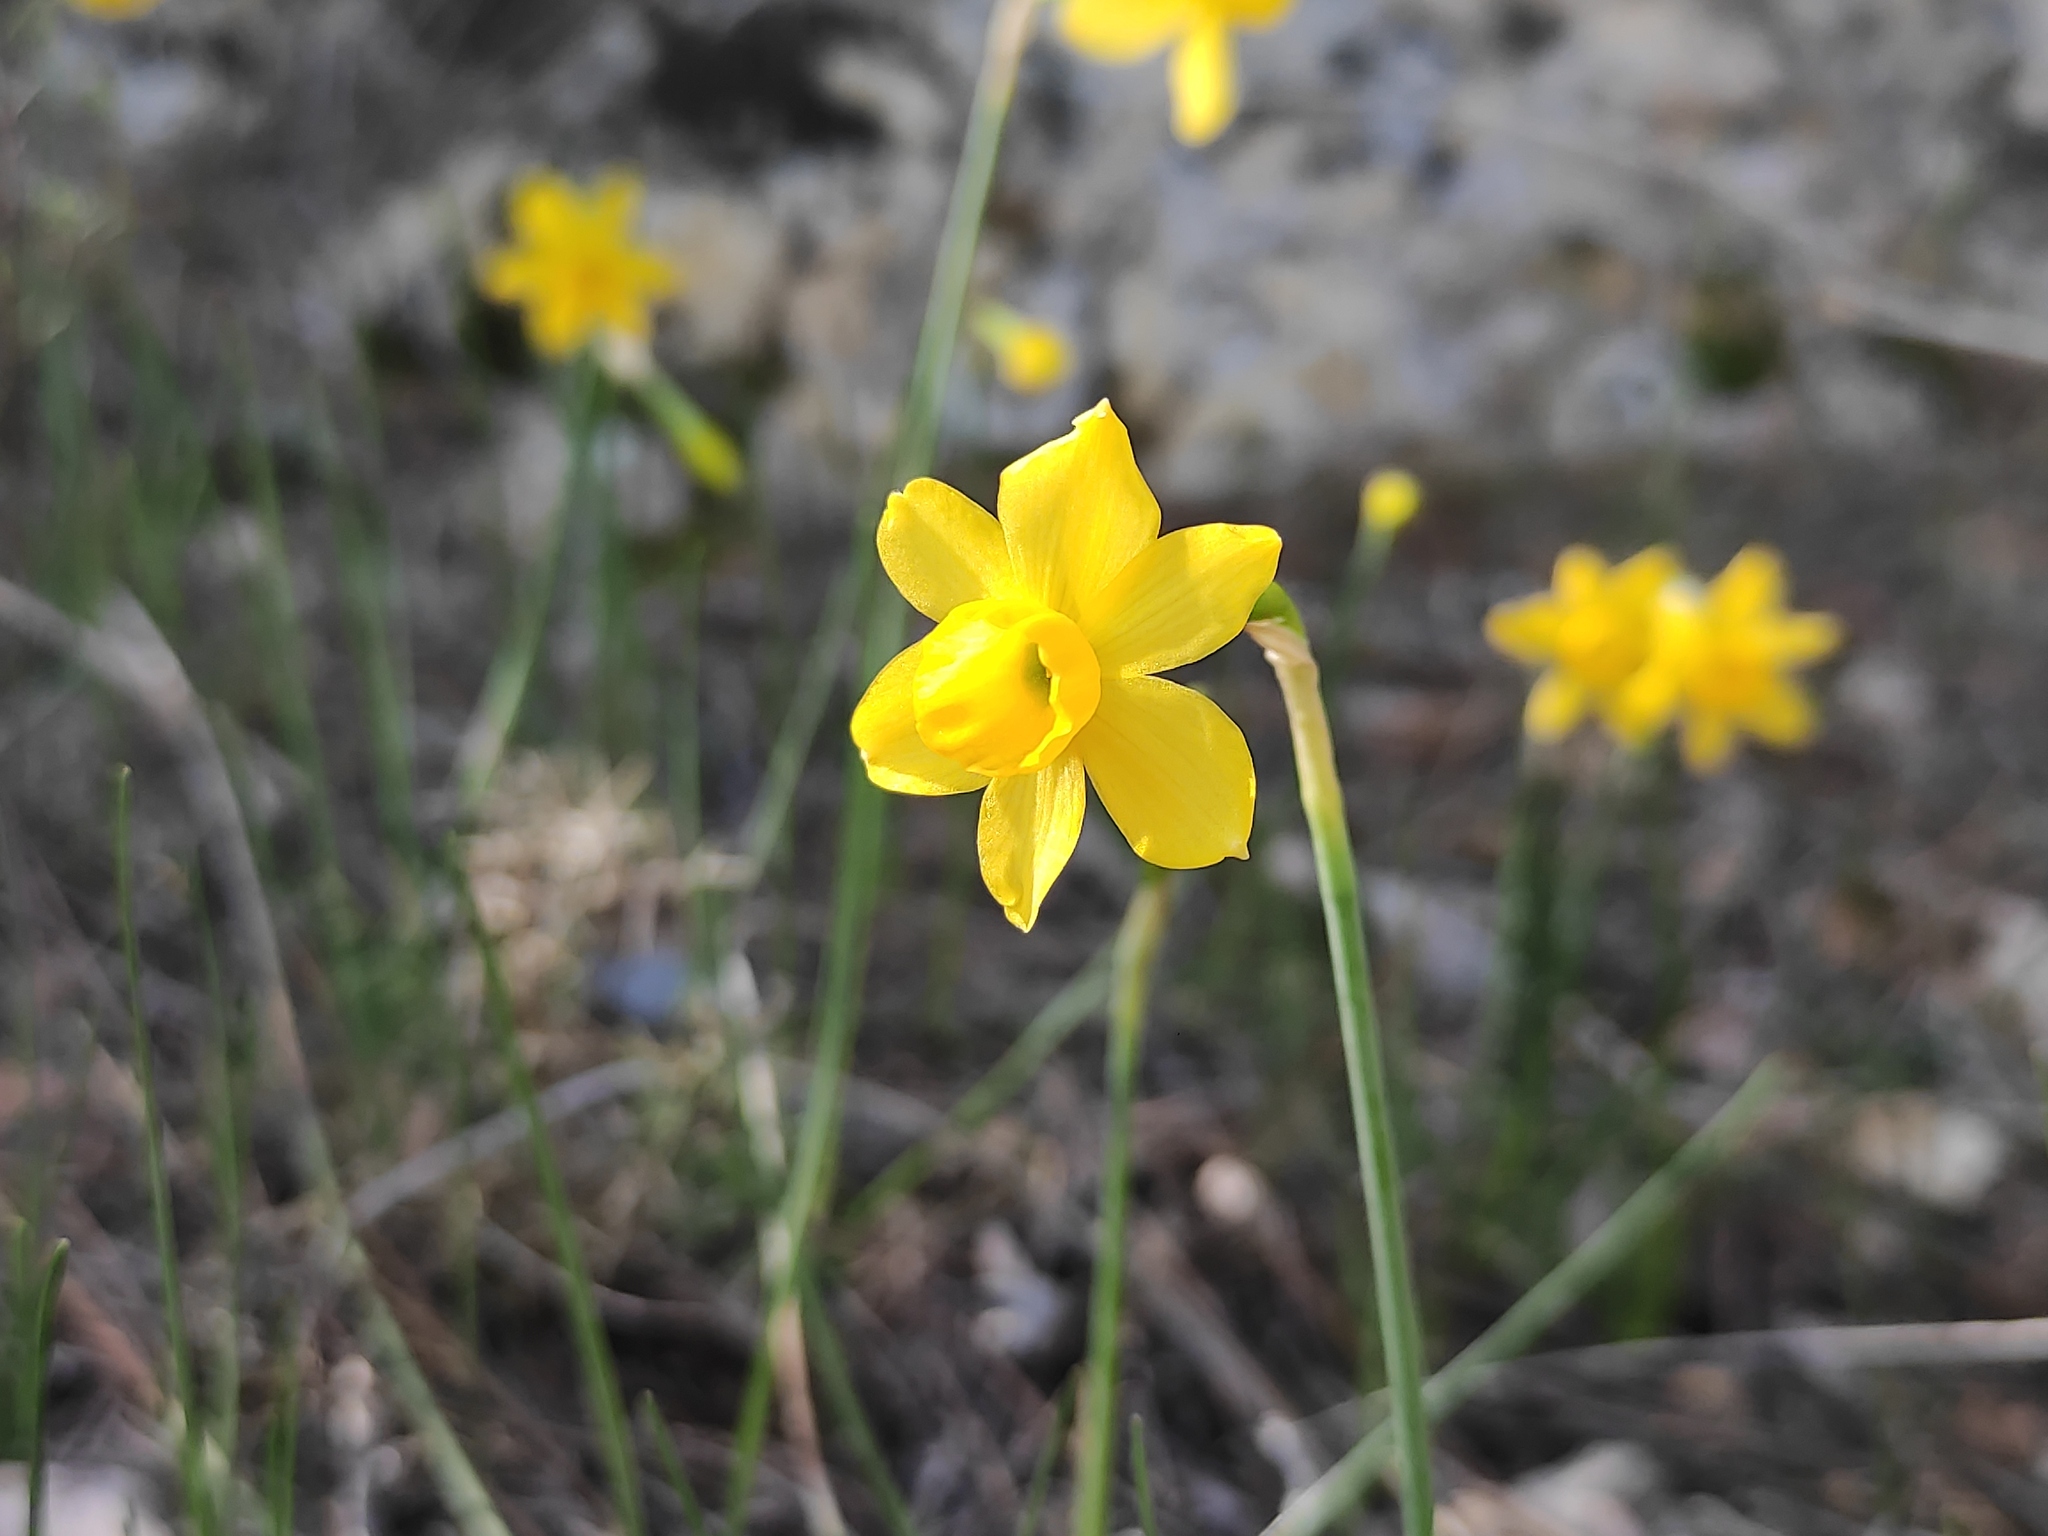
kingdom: Plantae
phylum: Tracheophyta
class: Liliopsida
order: Asparagales
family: Amaryllidaceae
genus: Narcissus
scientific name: Narcissus assoanus
